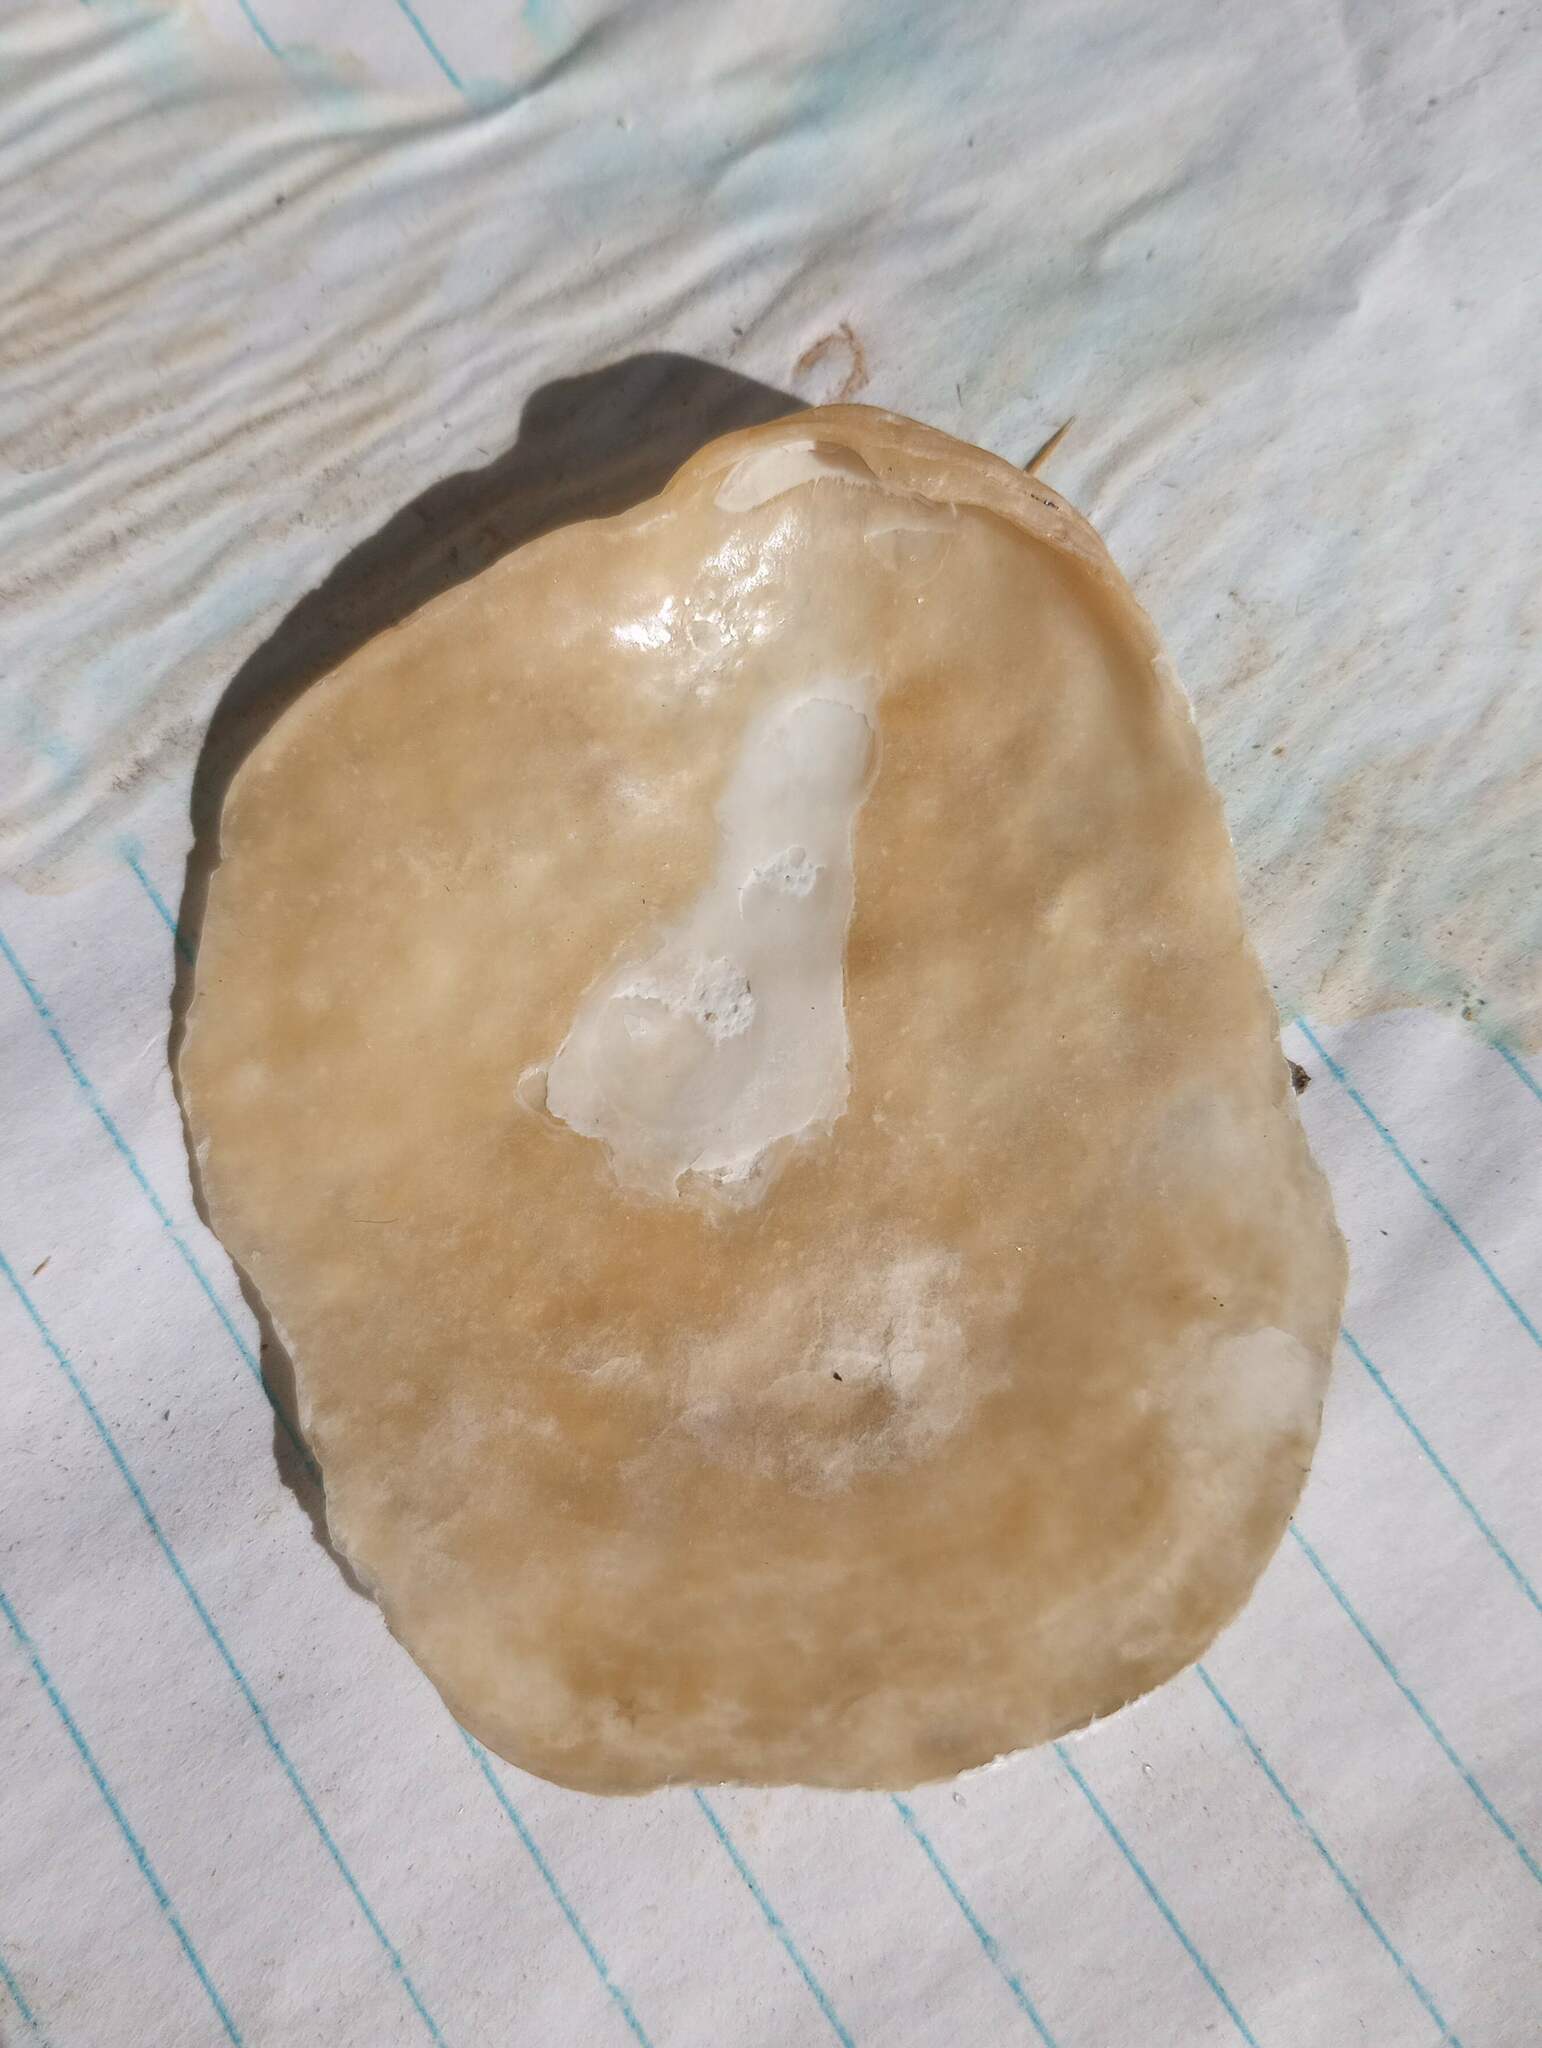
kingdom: Animalia
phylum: Mollusca
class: Bivalvia
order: Pectinida
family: Anomiidae
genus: Anomia
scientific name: Anomia peruviana
